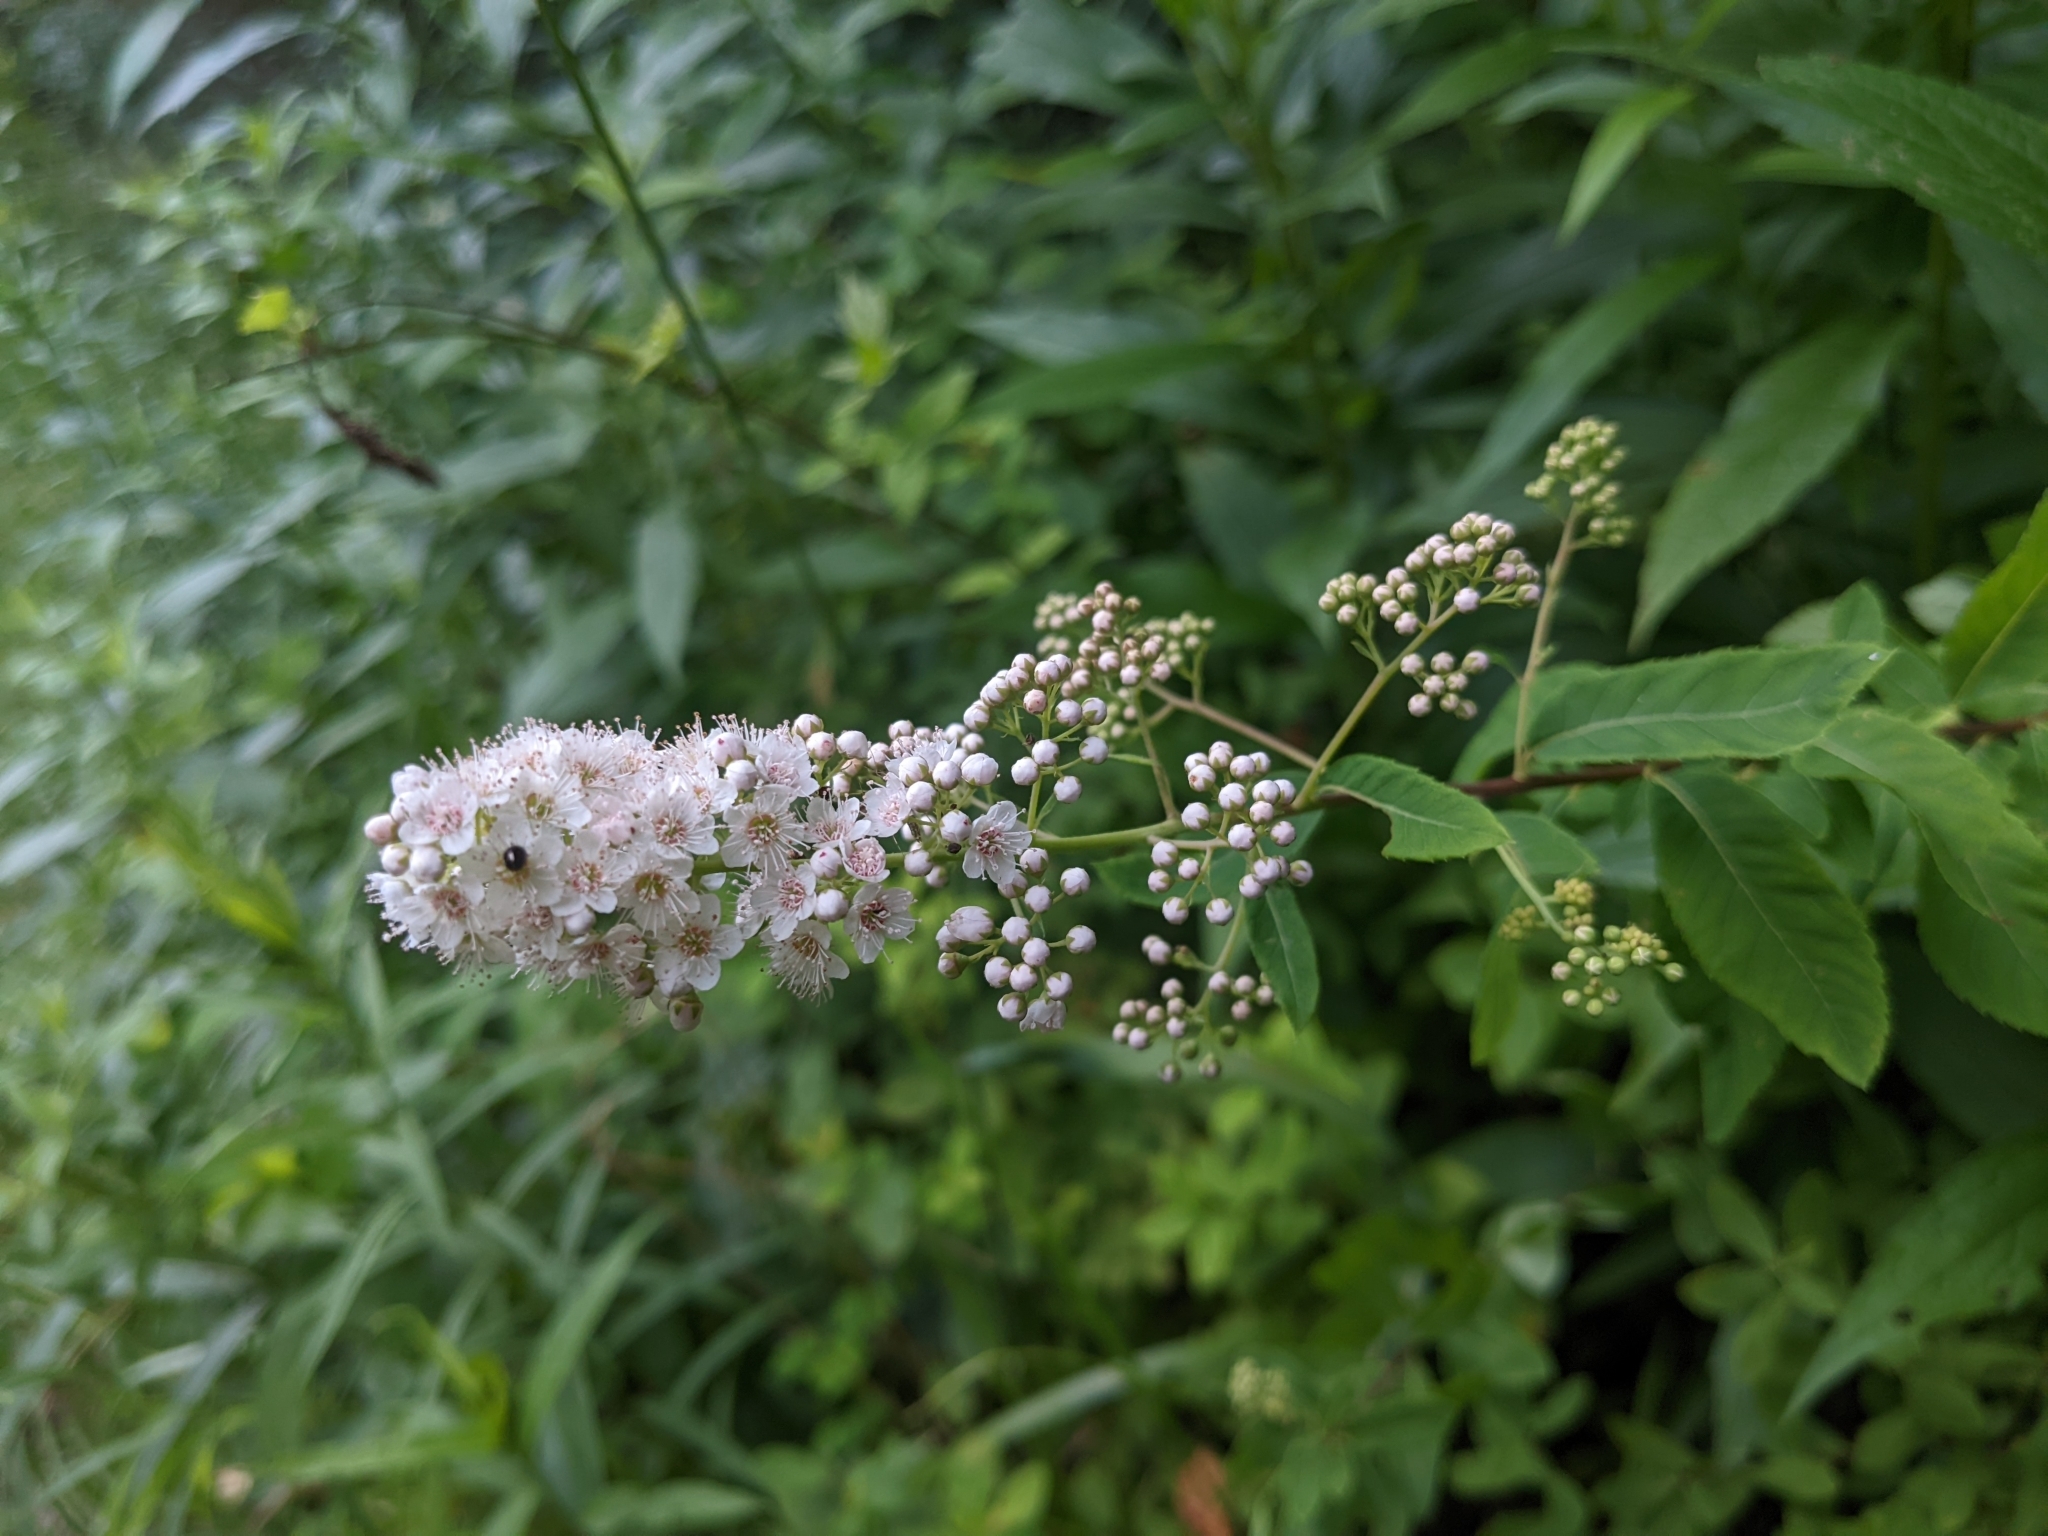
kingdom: Plantae
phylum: Tracheophyta
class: Magnoliopsida
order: Rosales
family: Rosaceae
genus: Spiraea
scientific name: Spiraea alba
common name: Pale bridewort
